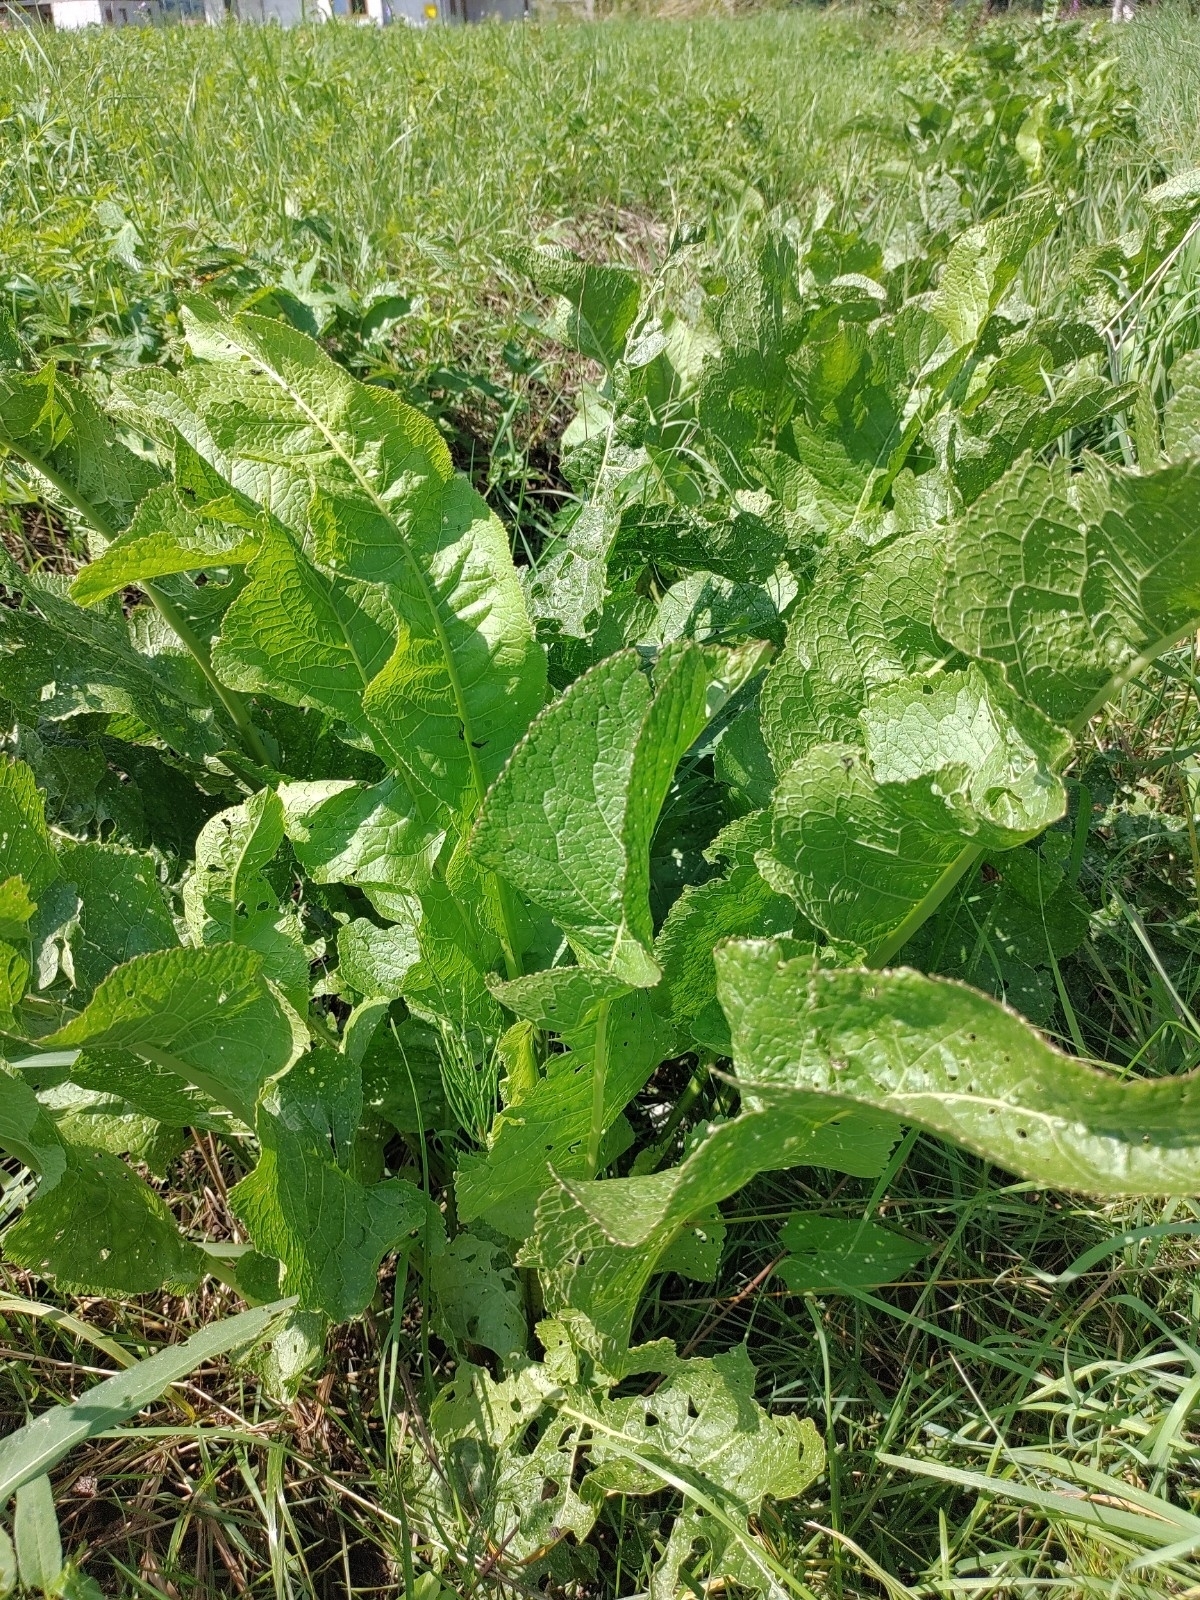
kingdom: Plantae
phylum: Tracheophyta
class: Magnoliopsida
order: Brassicales
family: Brassicaceae
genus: Armoracia
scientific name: Armoracia rusticana
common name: Horseradish
